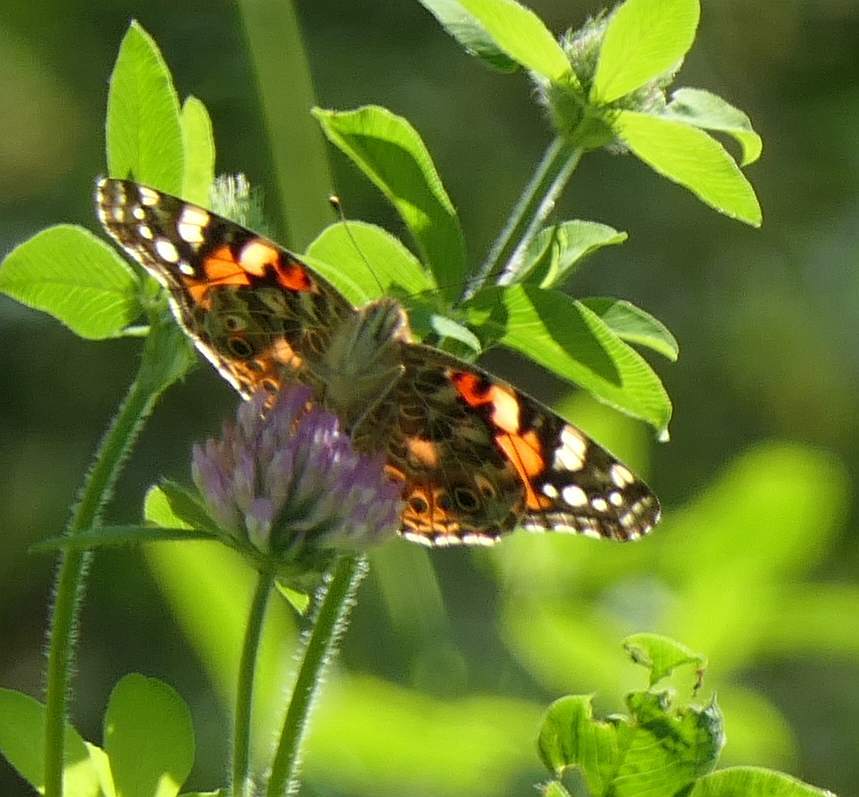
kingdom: Animalia
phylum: Arthropoda
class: Insecta
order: Lepidoptera
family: Nymphalidae
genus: Vanessa
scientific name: Vanessa cardui
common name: Painted lady
